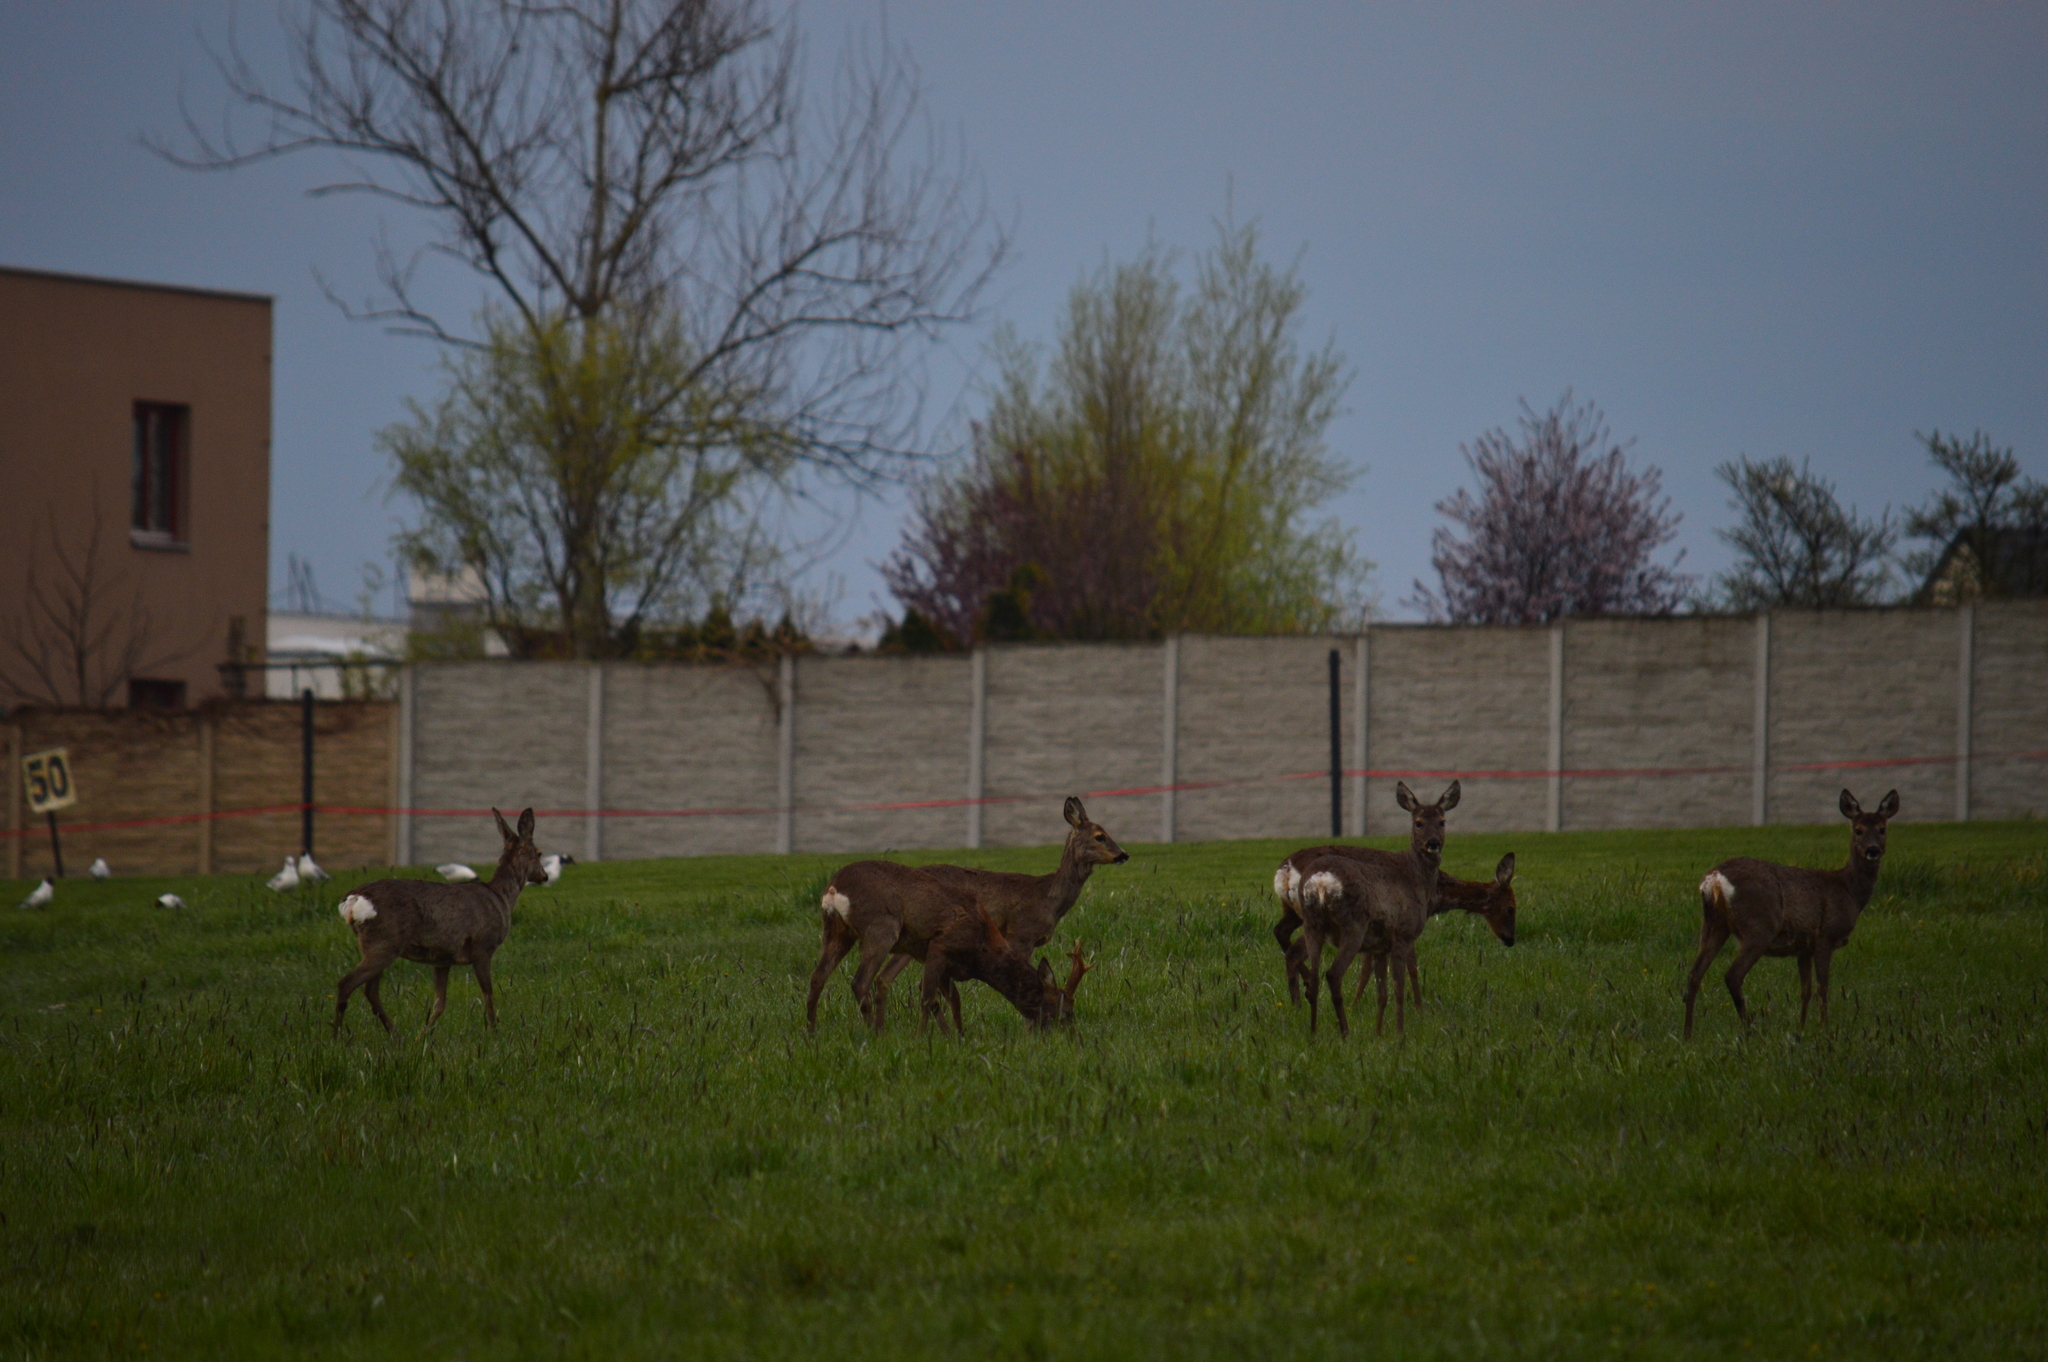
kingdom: Animalia
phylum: Chordata
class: Mammalia
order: Artiodactyla
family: Cervidae
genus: Capreolus
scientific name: Capreolus capreolus
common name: Western roe deer
